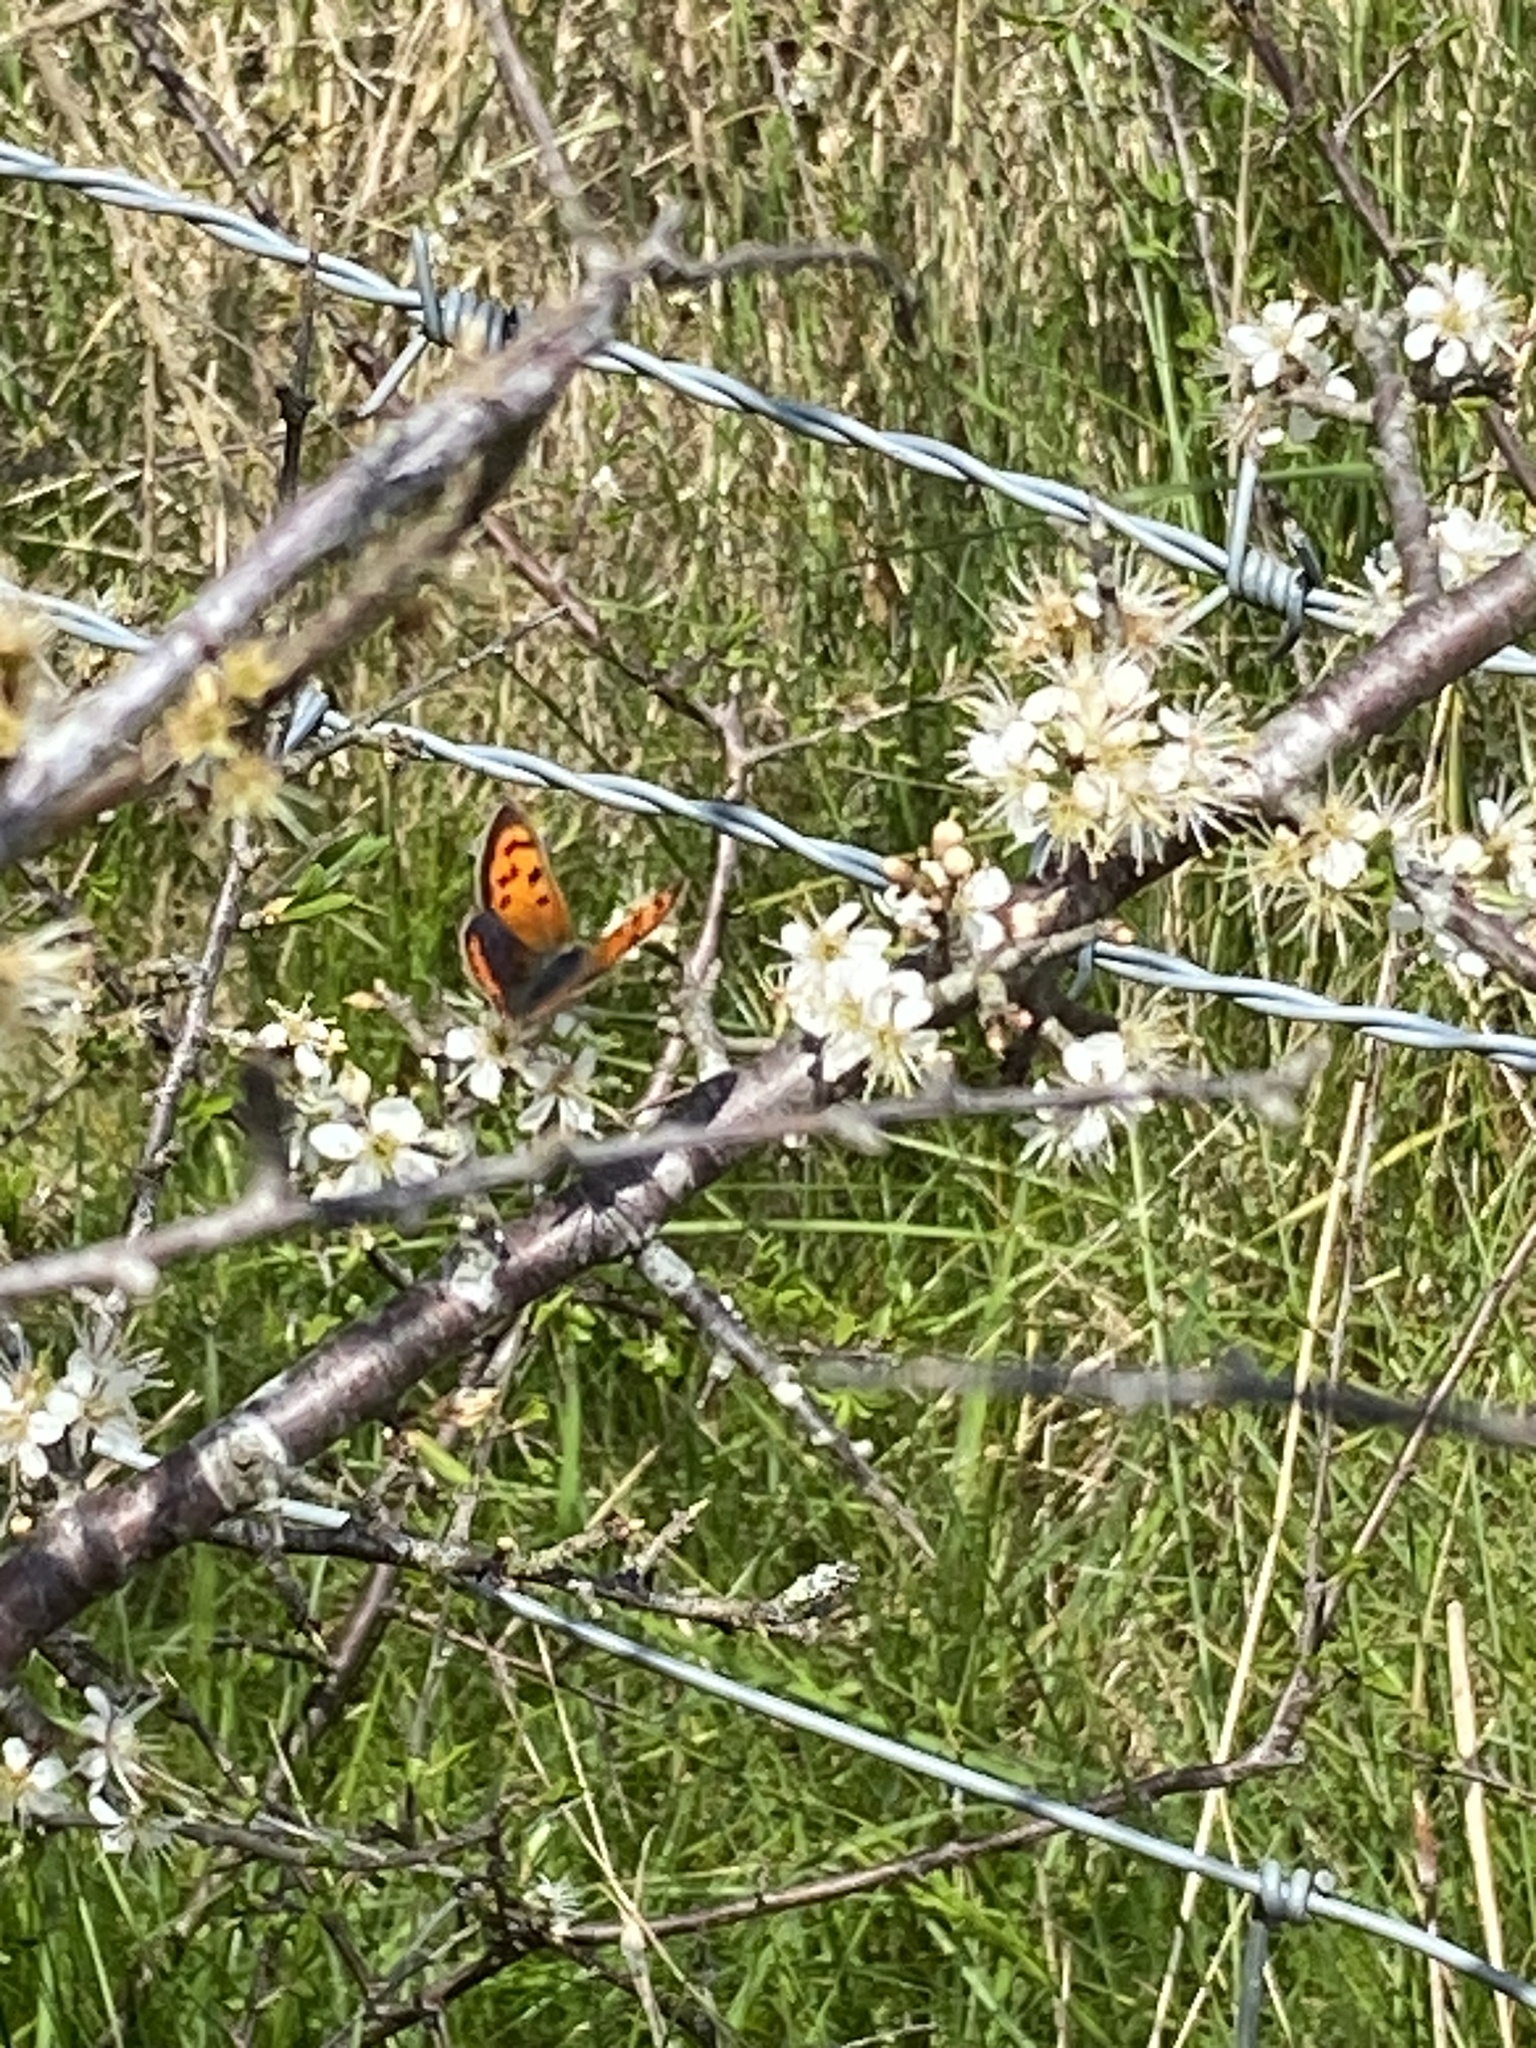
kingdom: Animalia
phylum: Arthropoda
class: Insecta
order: Lepidoptera
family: Lycaenidae
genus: Lycaena
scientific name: Lycaena phlaeas
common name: Small copper
